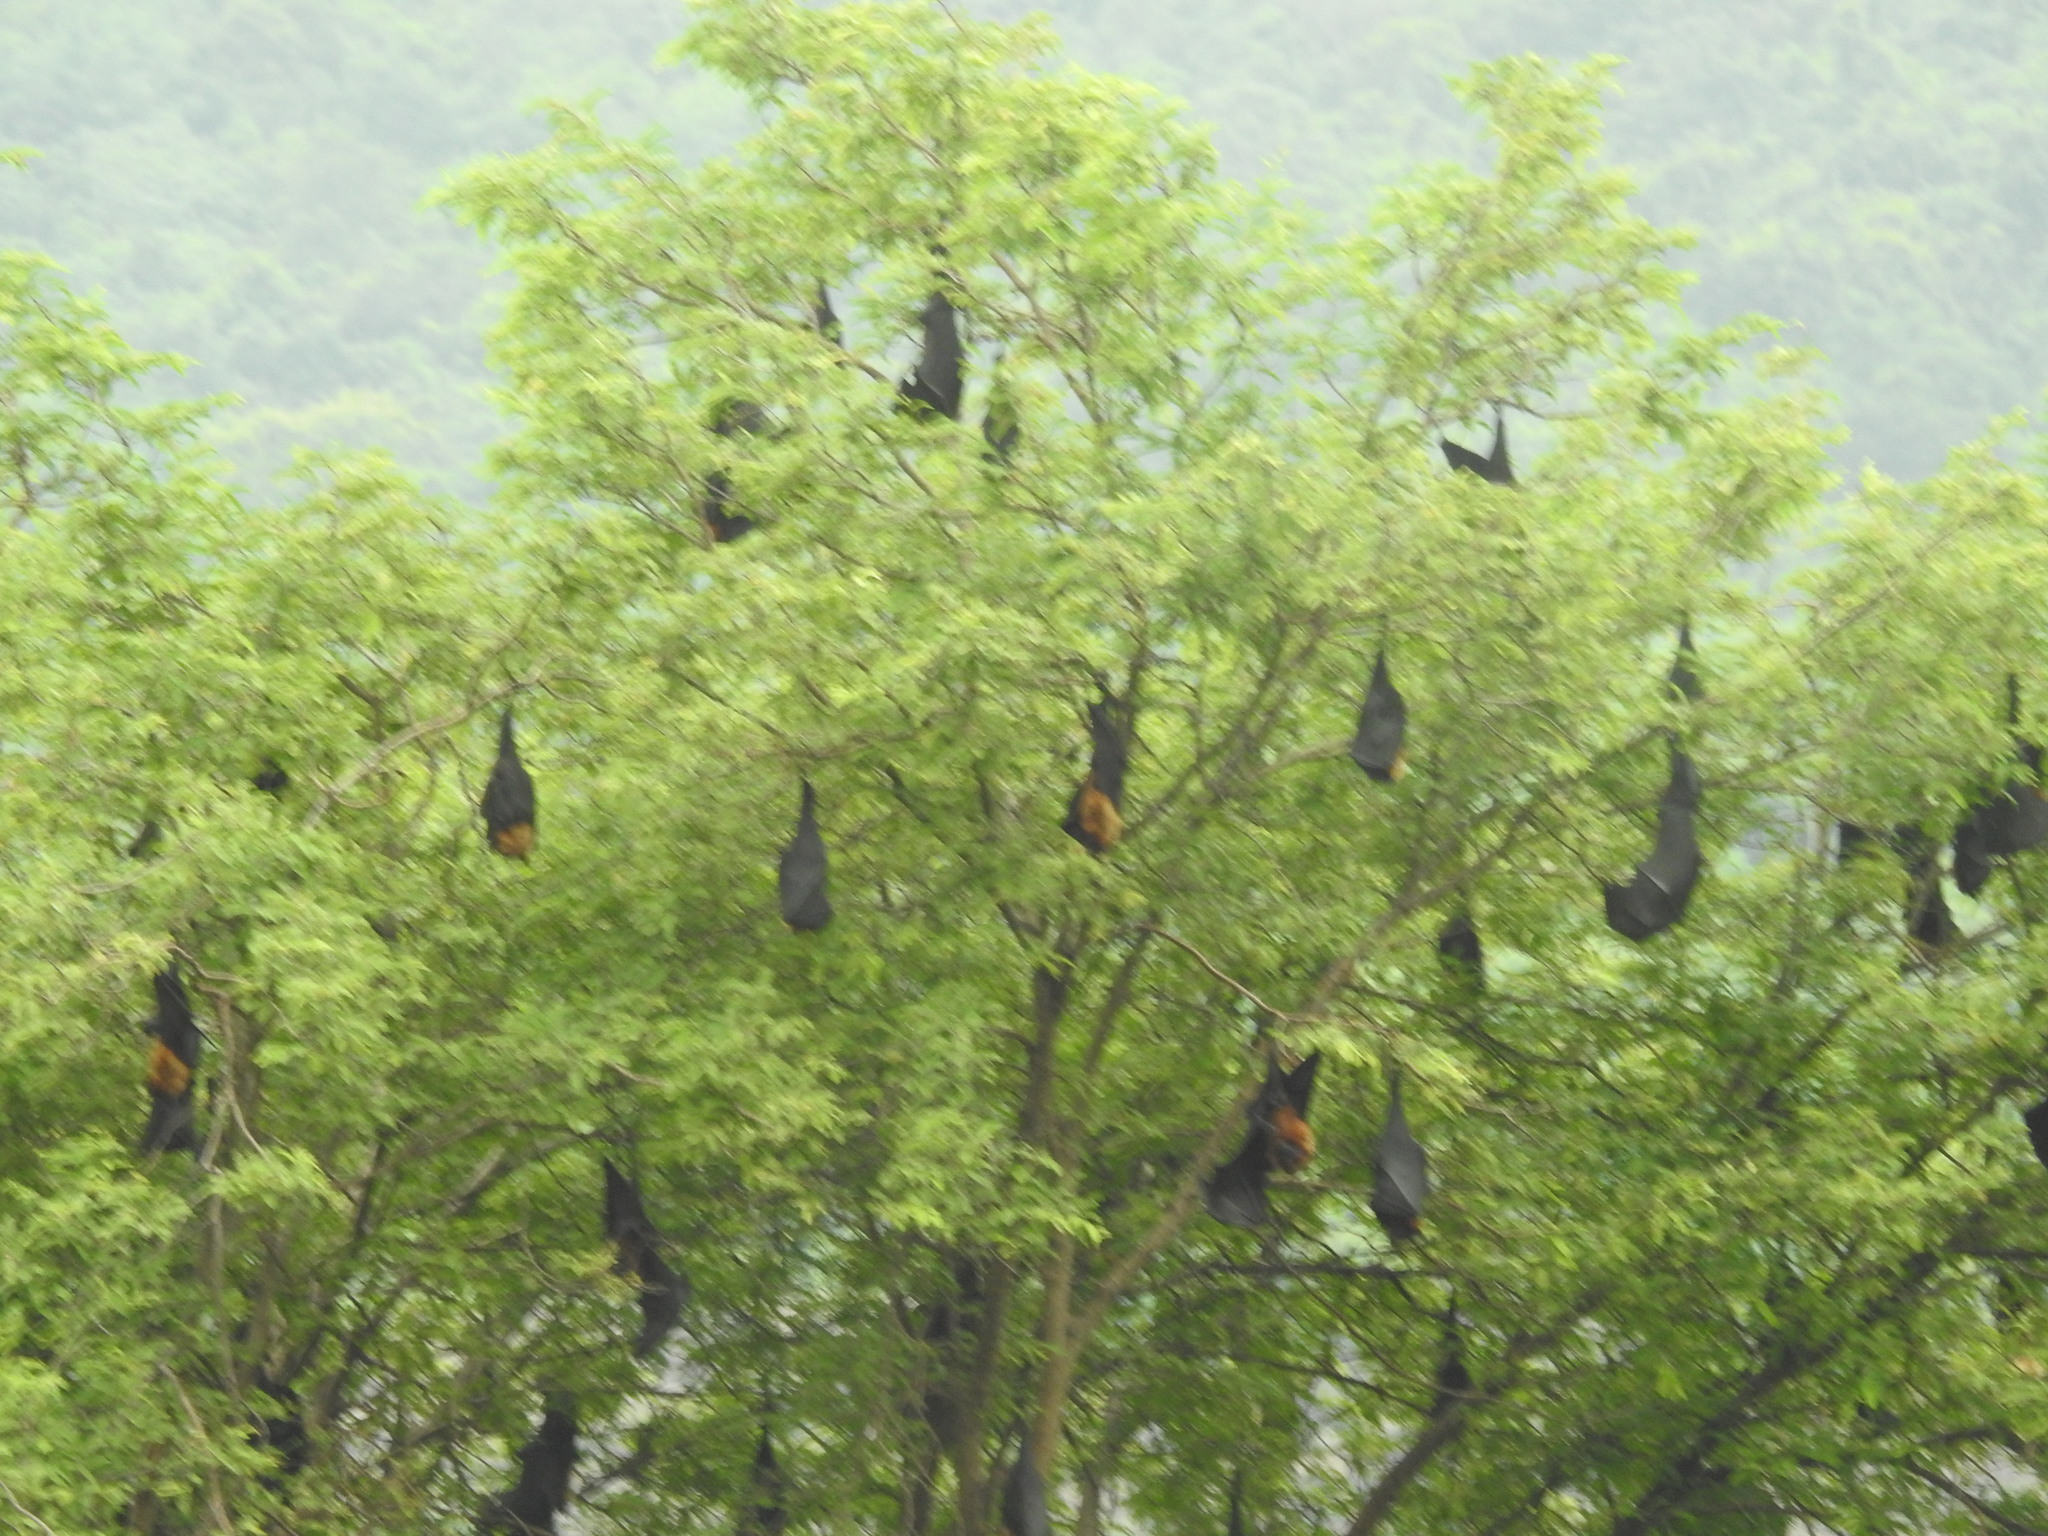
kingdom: Animalia
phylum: Chordata
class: Mammalia
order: Chiroptera
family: Pteropodidae
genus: Pteropus
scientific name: Pteropus vampyrus
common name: Large flying fox
